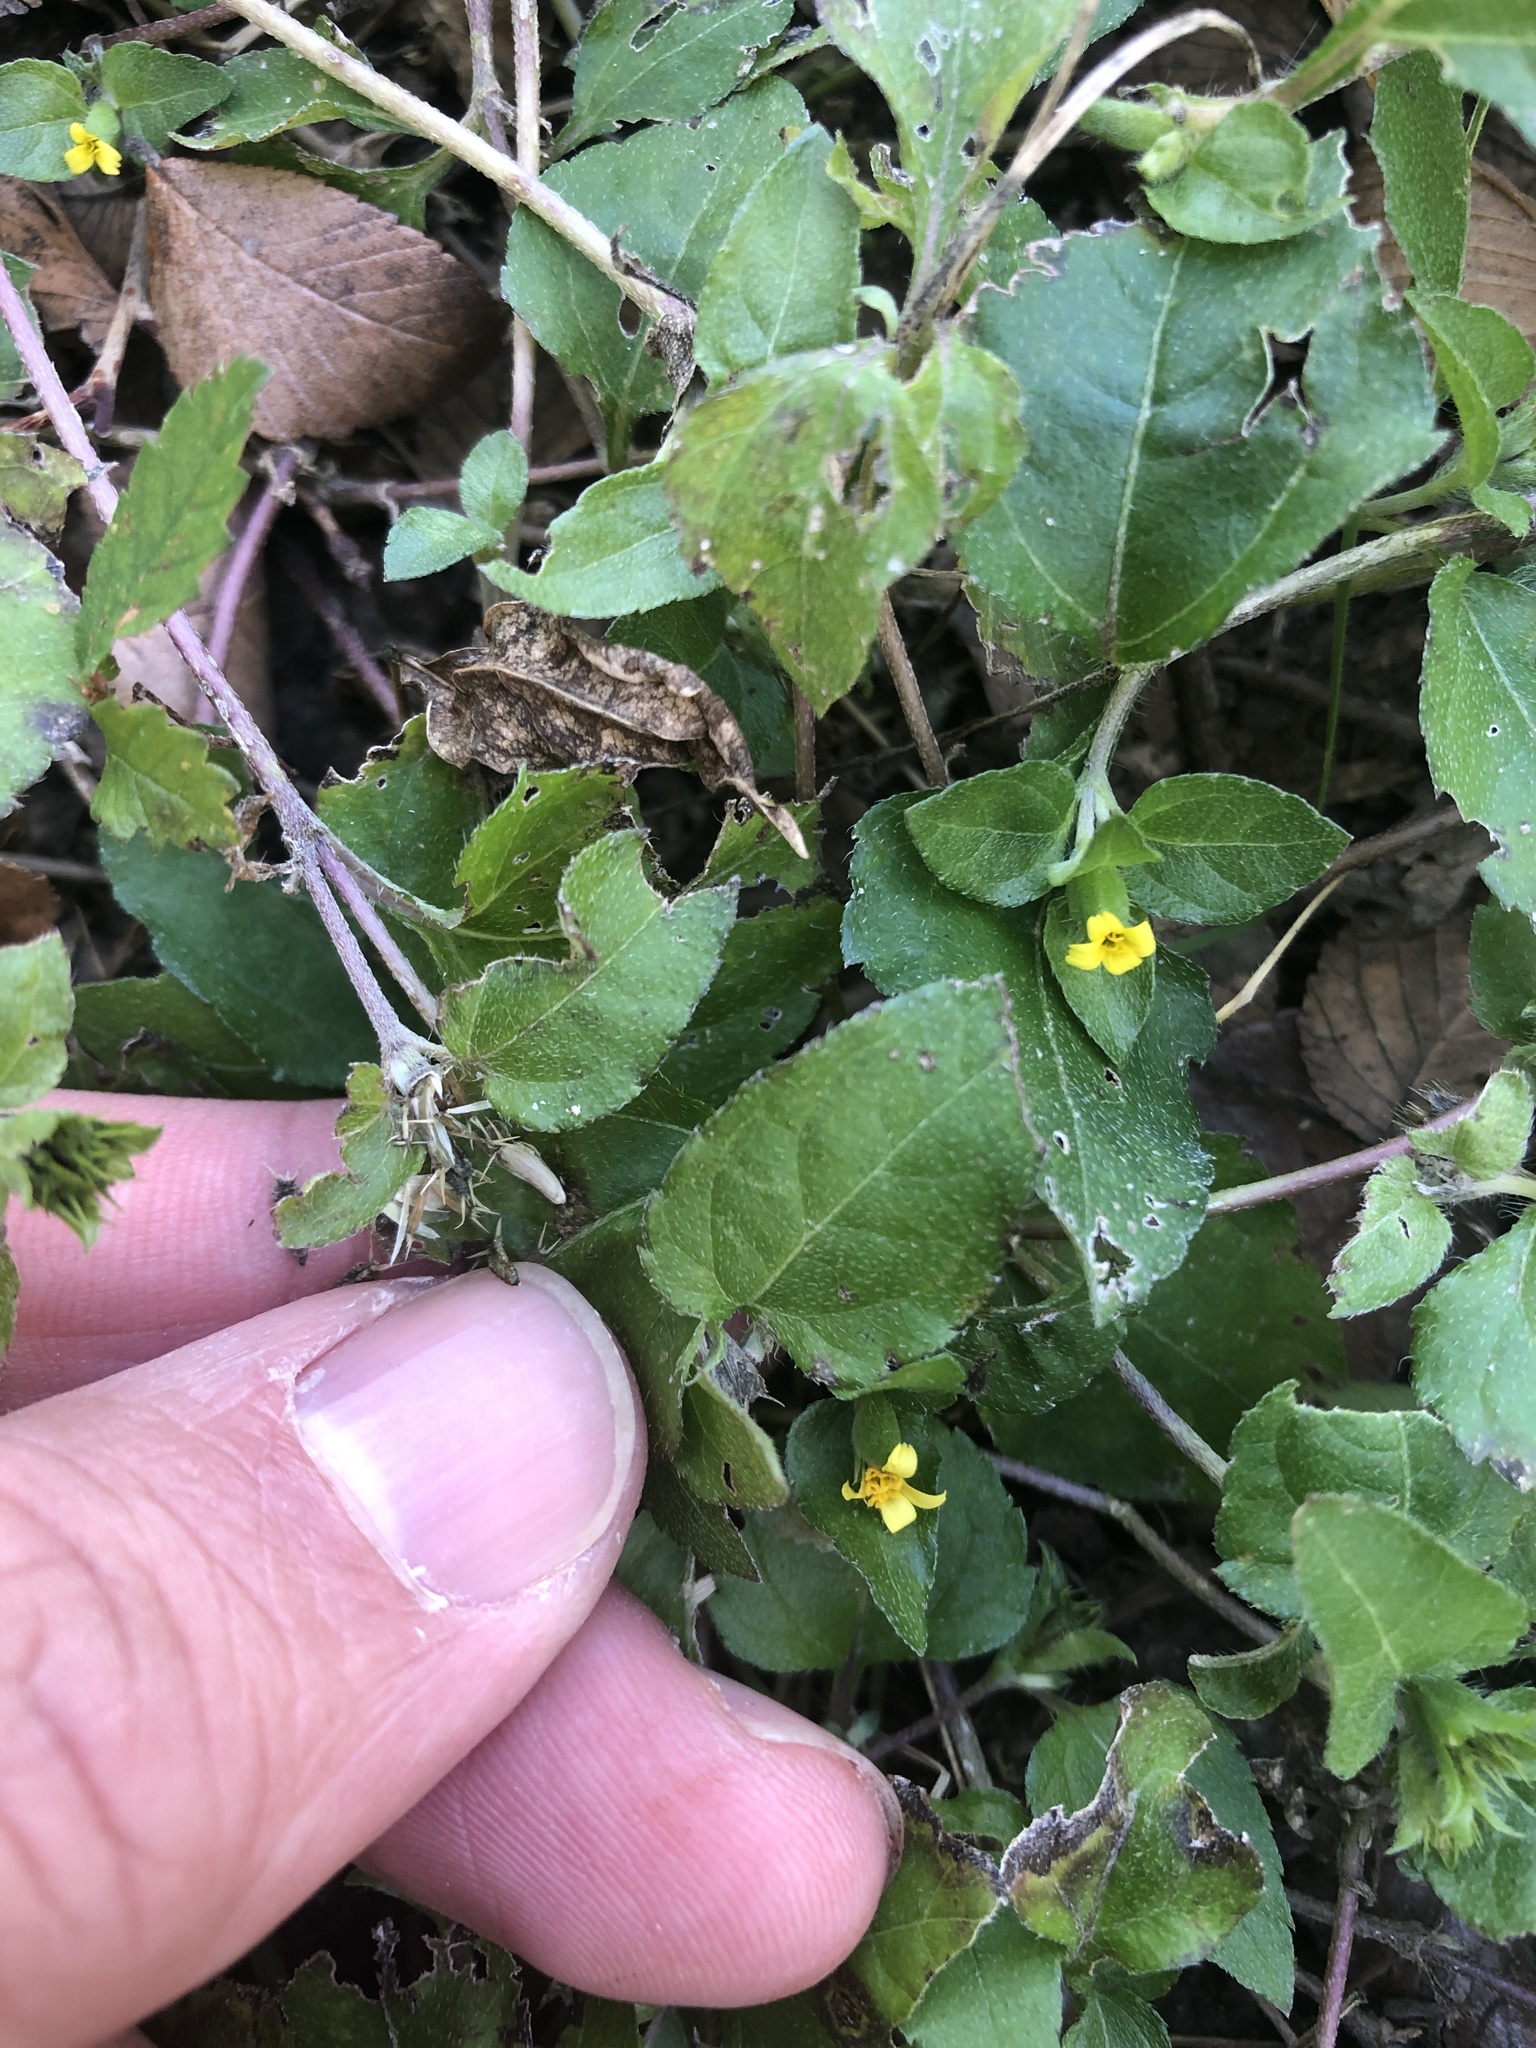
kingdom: Plantae
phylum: Tracheophyta
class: Magnoliopsida
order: Asterales
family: Asteraceae
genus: Calyptocarpus
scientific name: Calyptocarpus vialis
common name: Straggler daisy
